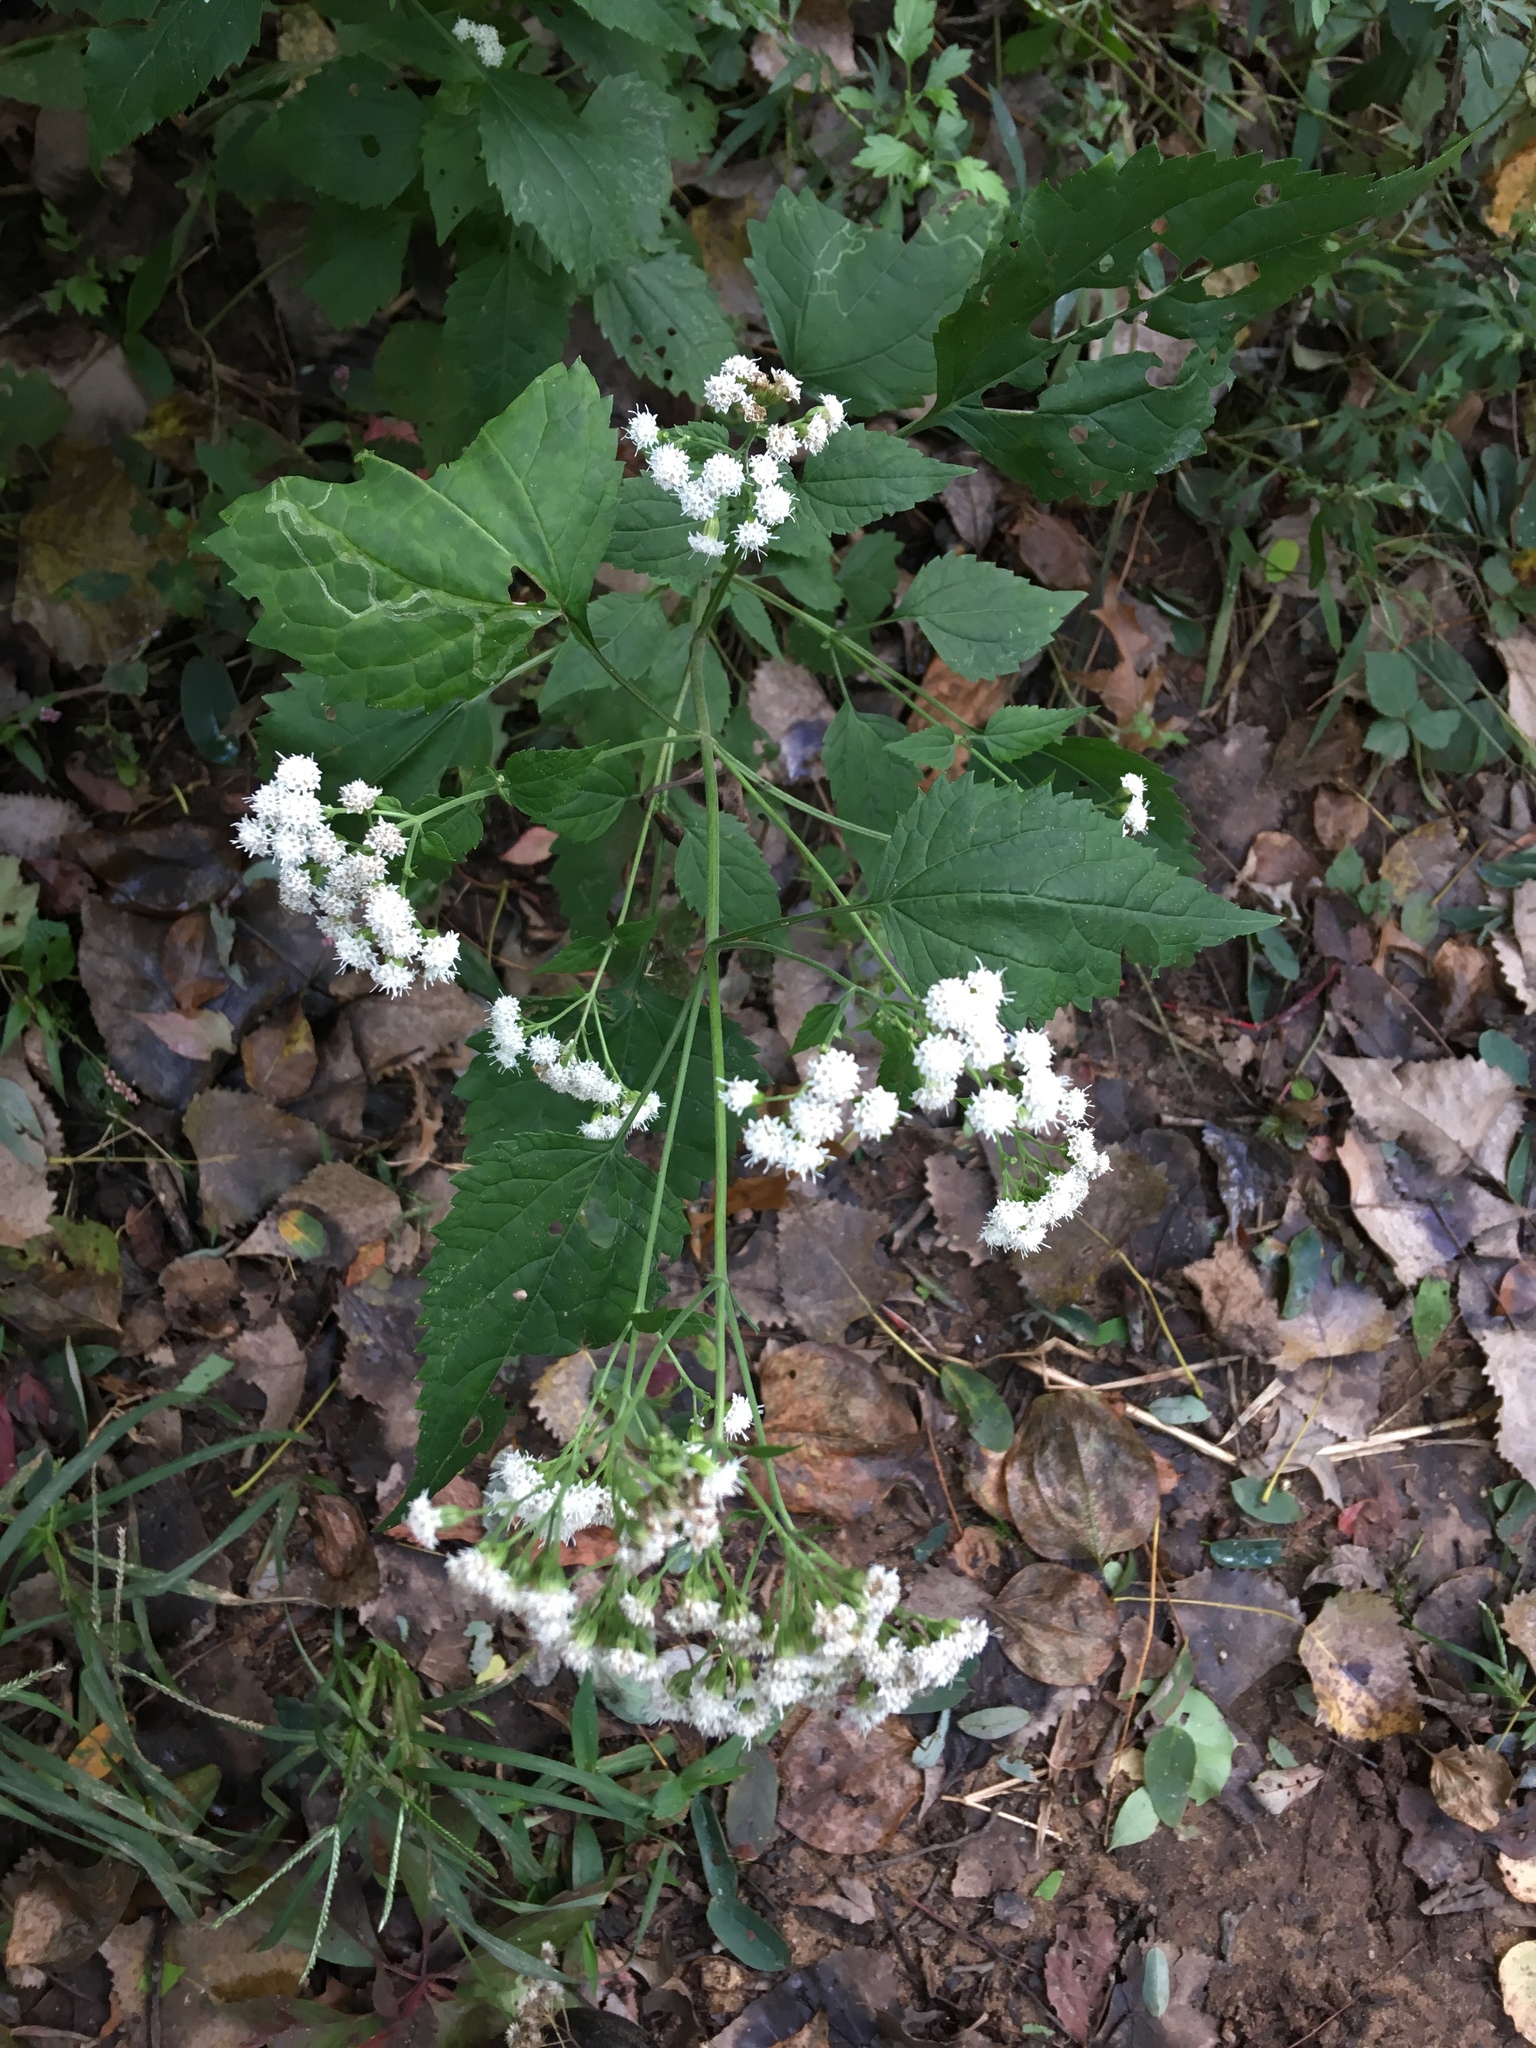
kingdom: Plantae
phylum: Tracheophyta
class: Magnoliopsida
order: Asterales
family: Asteraceae
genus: Ageratina
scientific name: Ageratina altissima
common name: White snakeroot
